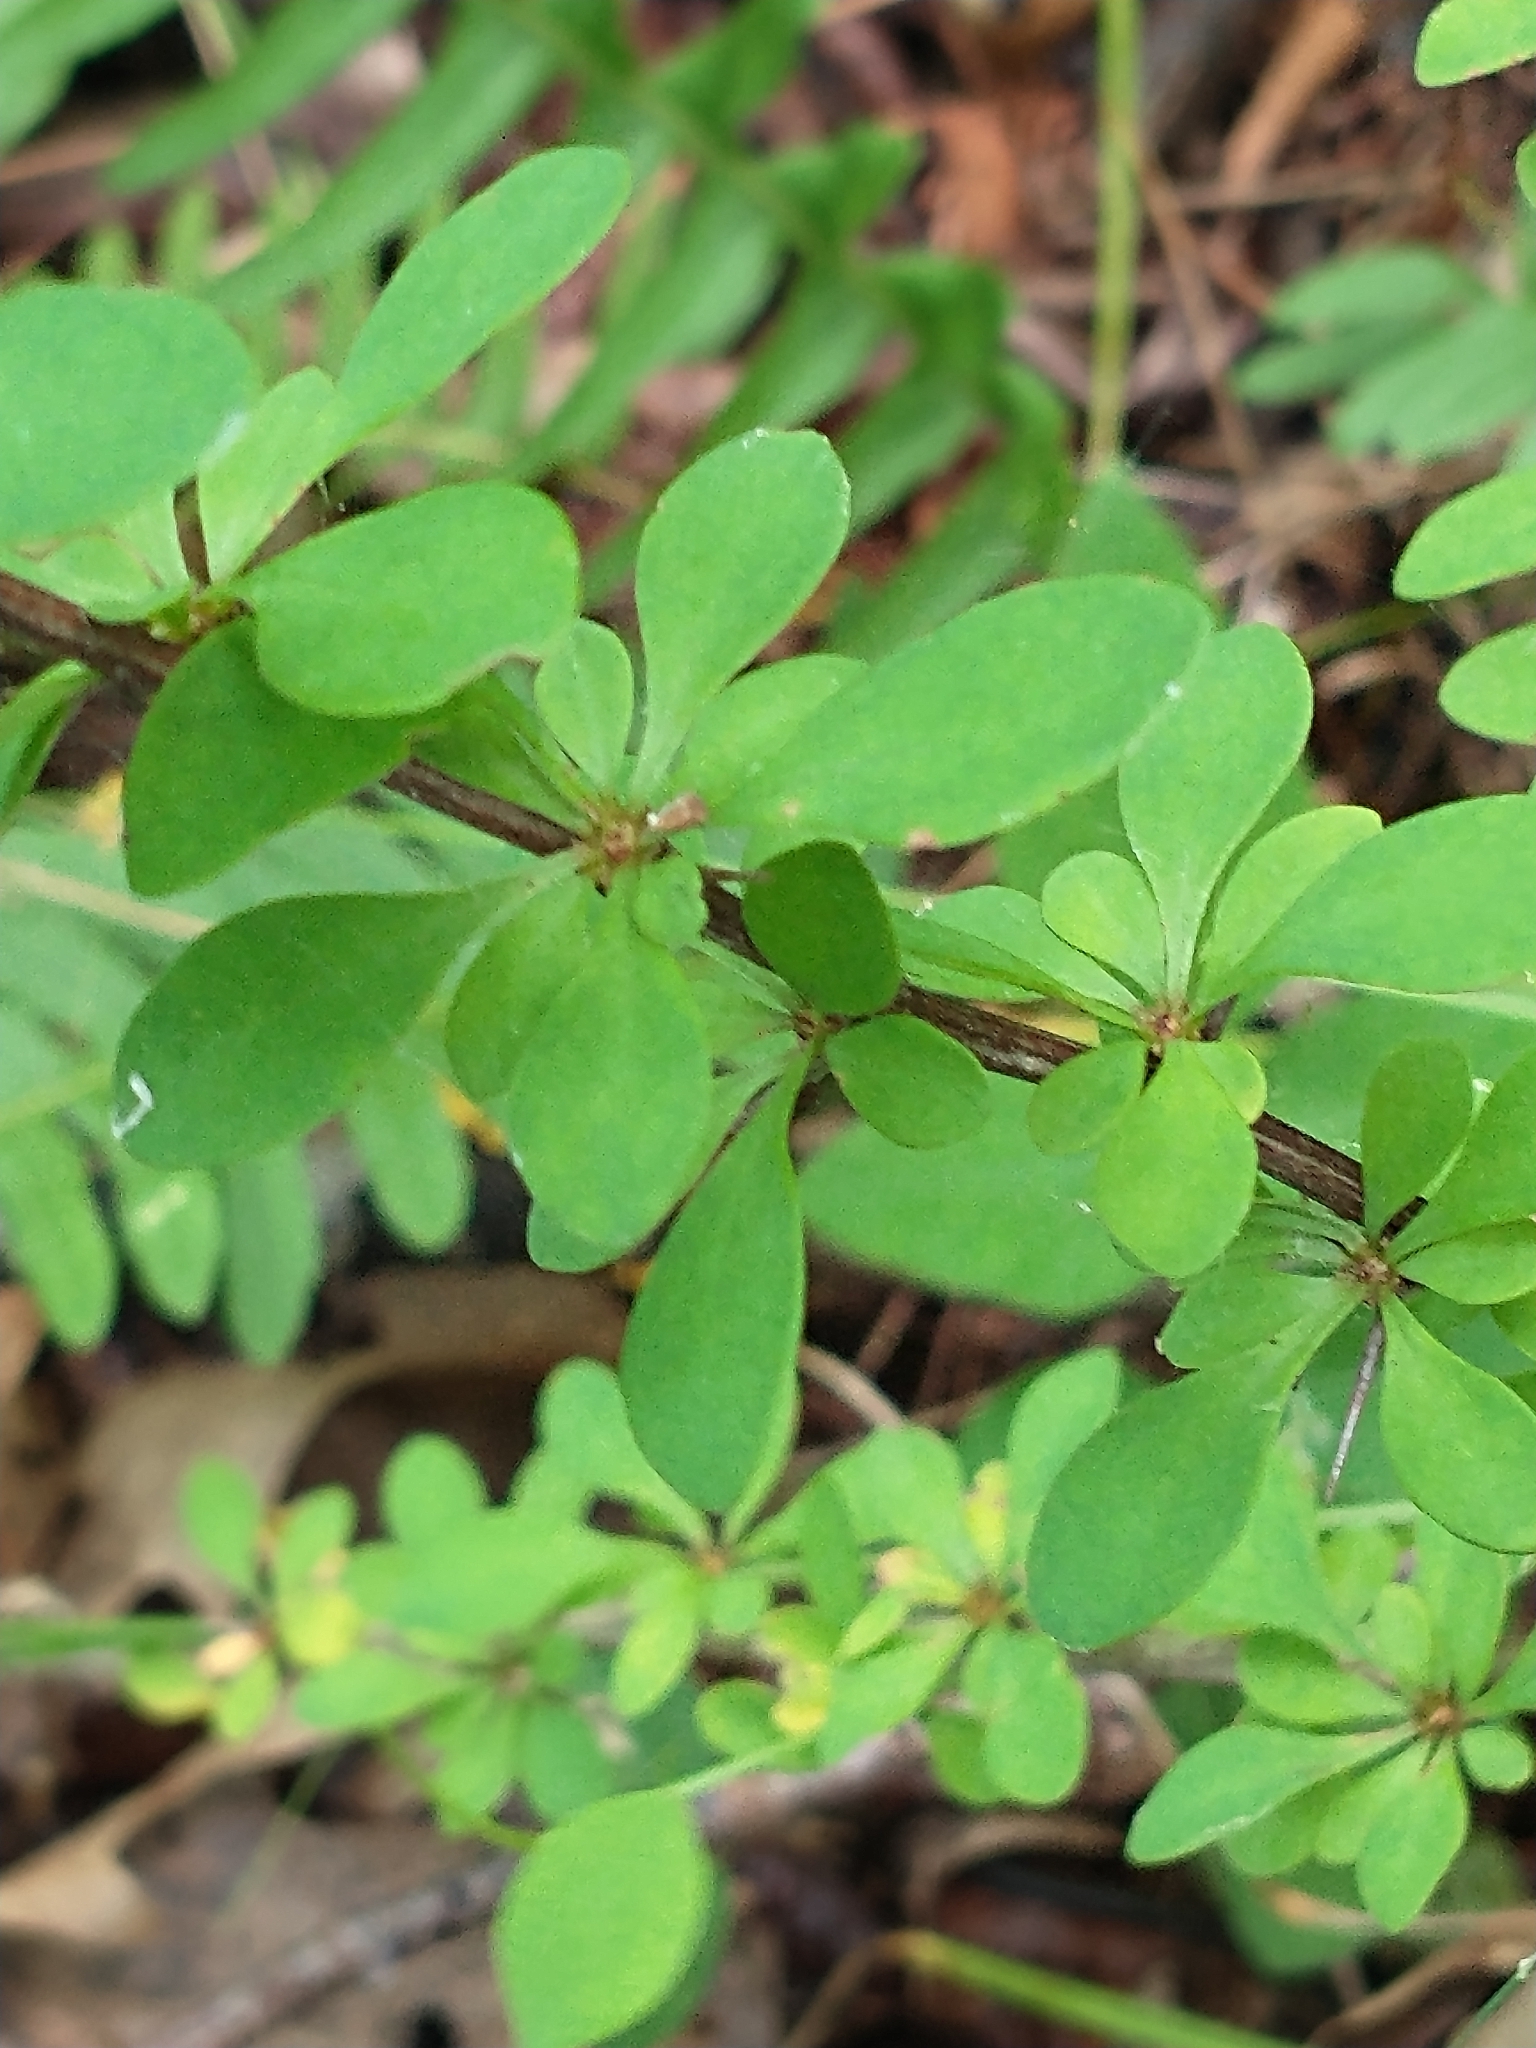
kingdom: Plantae
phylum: Tracheophyta
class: Magnoliopsida
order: Ranunculales
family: Berberidaceae
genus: Berberis
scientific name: Berberis thunbergii
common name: Japanese barberry
